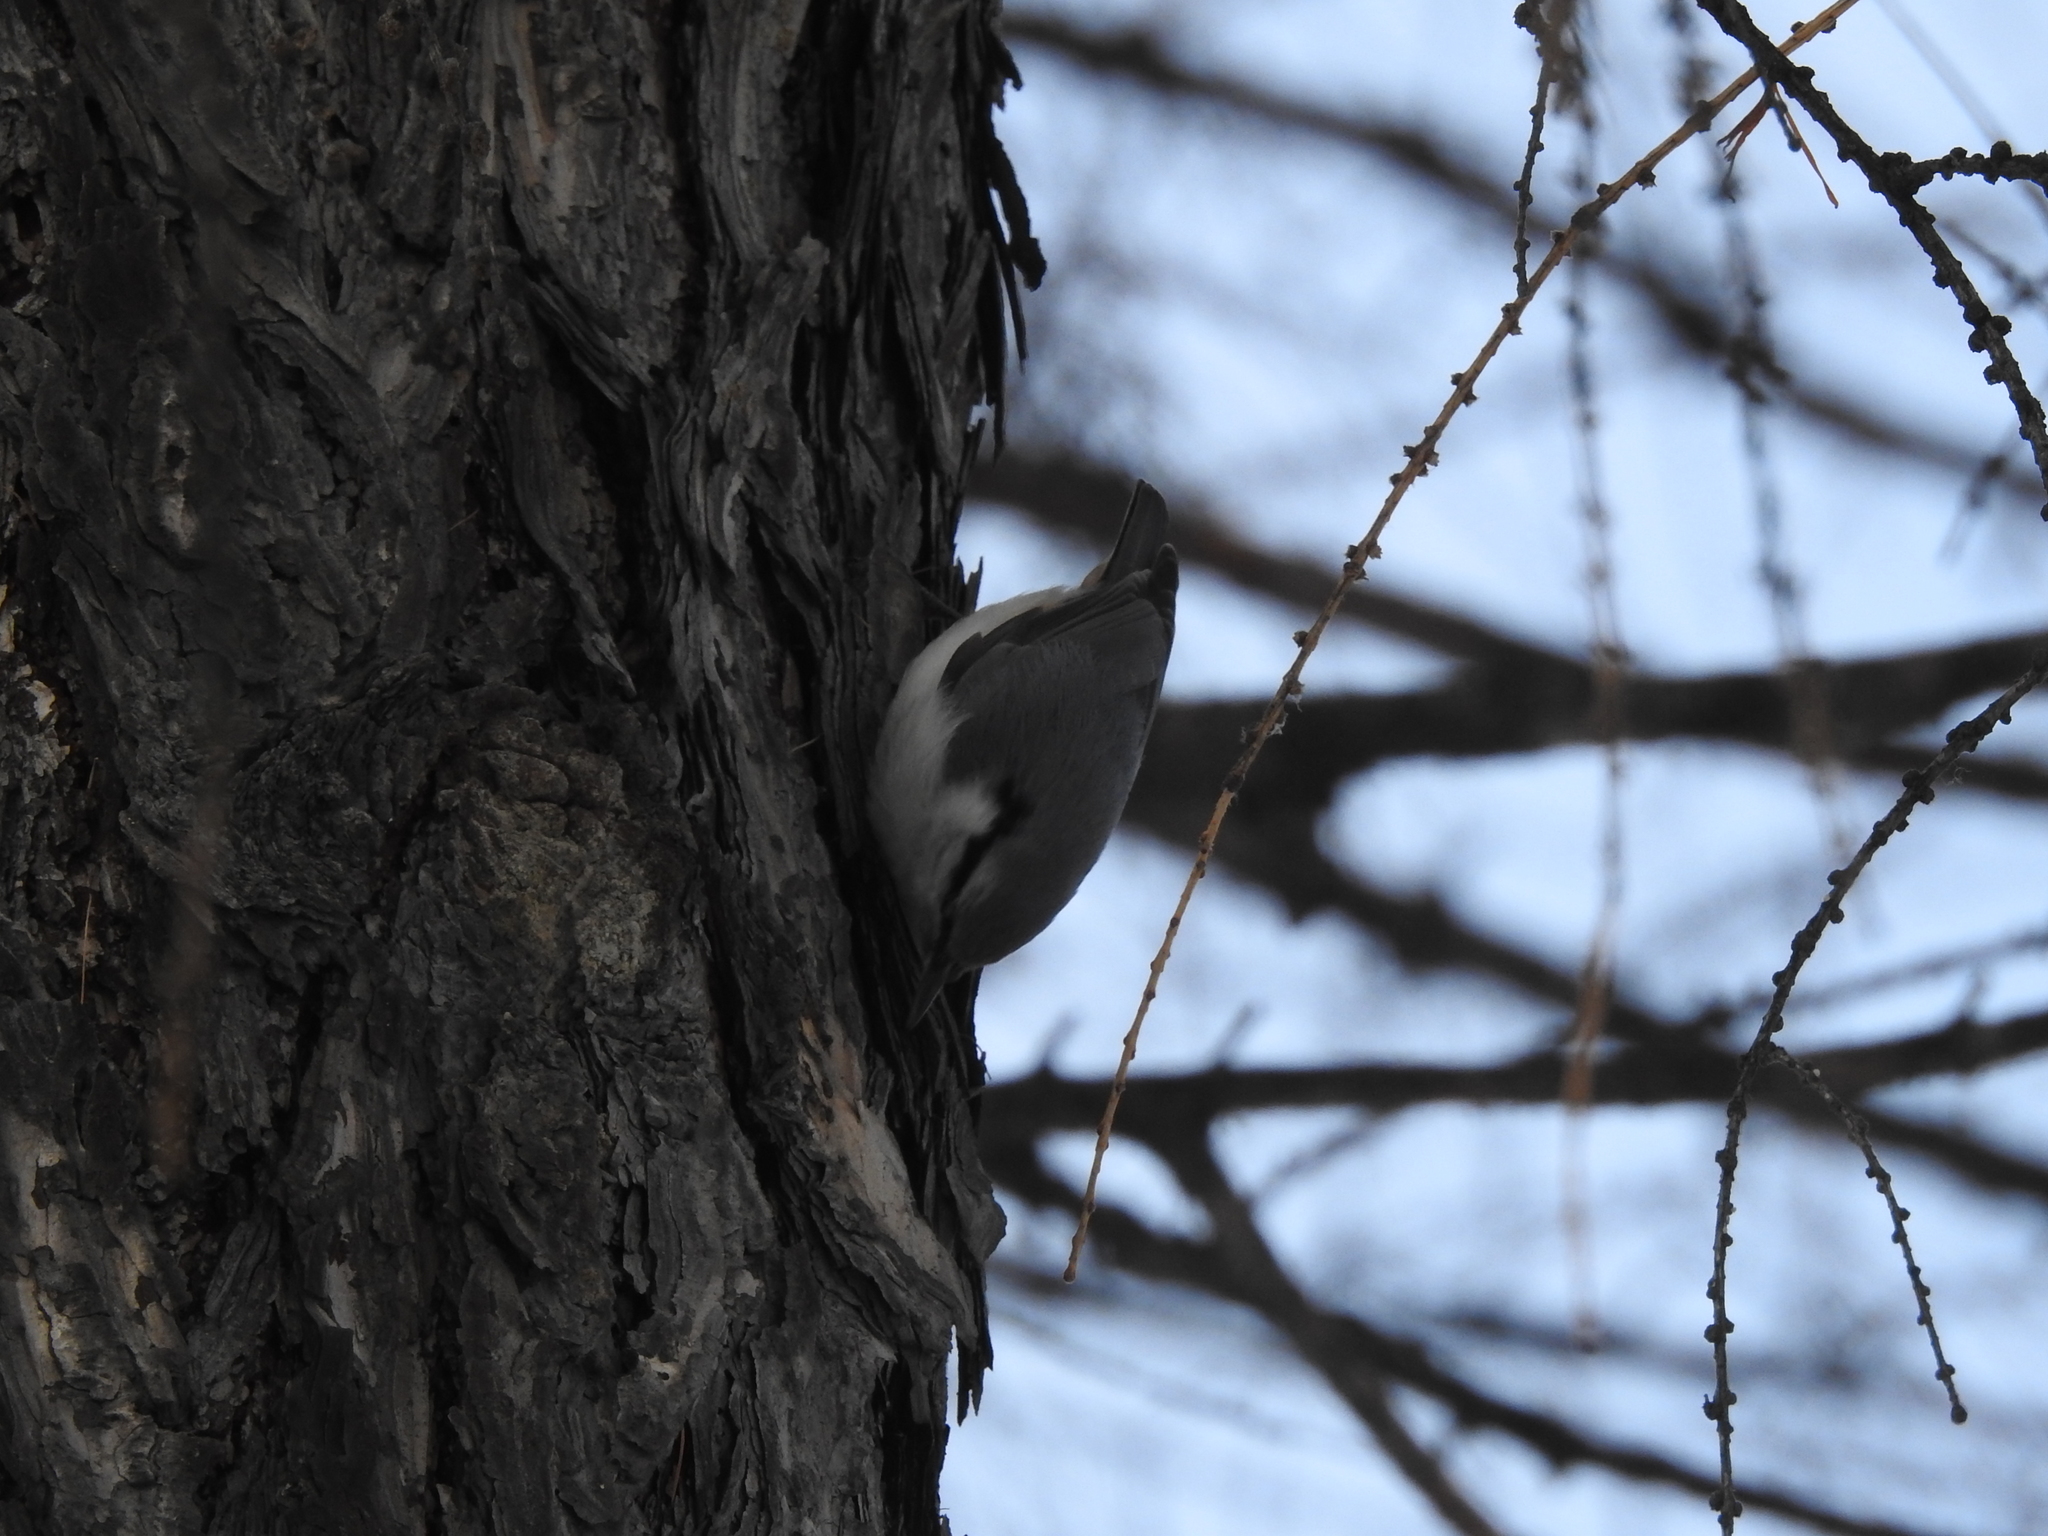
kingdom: Animalia
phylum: Chordata
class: Aves
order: Passeriformes
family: Sittidae
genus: Sitta
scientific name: Sitta europaea
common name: Eurasian nuthatch
